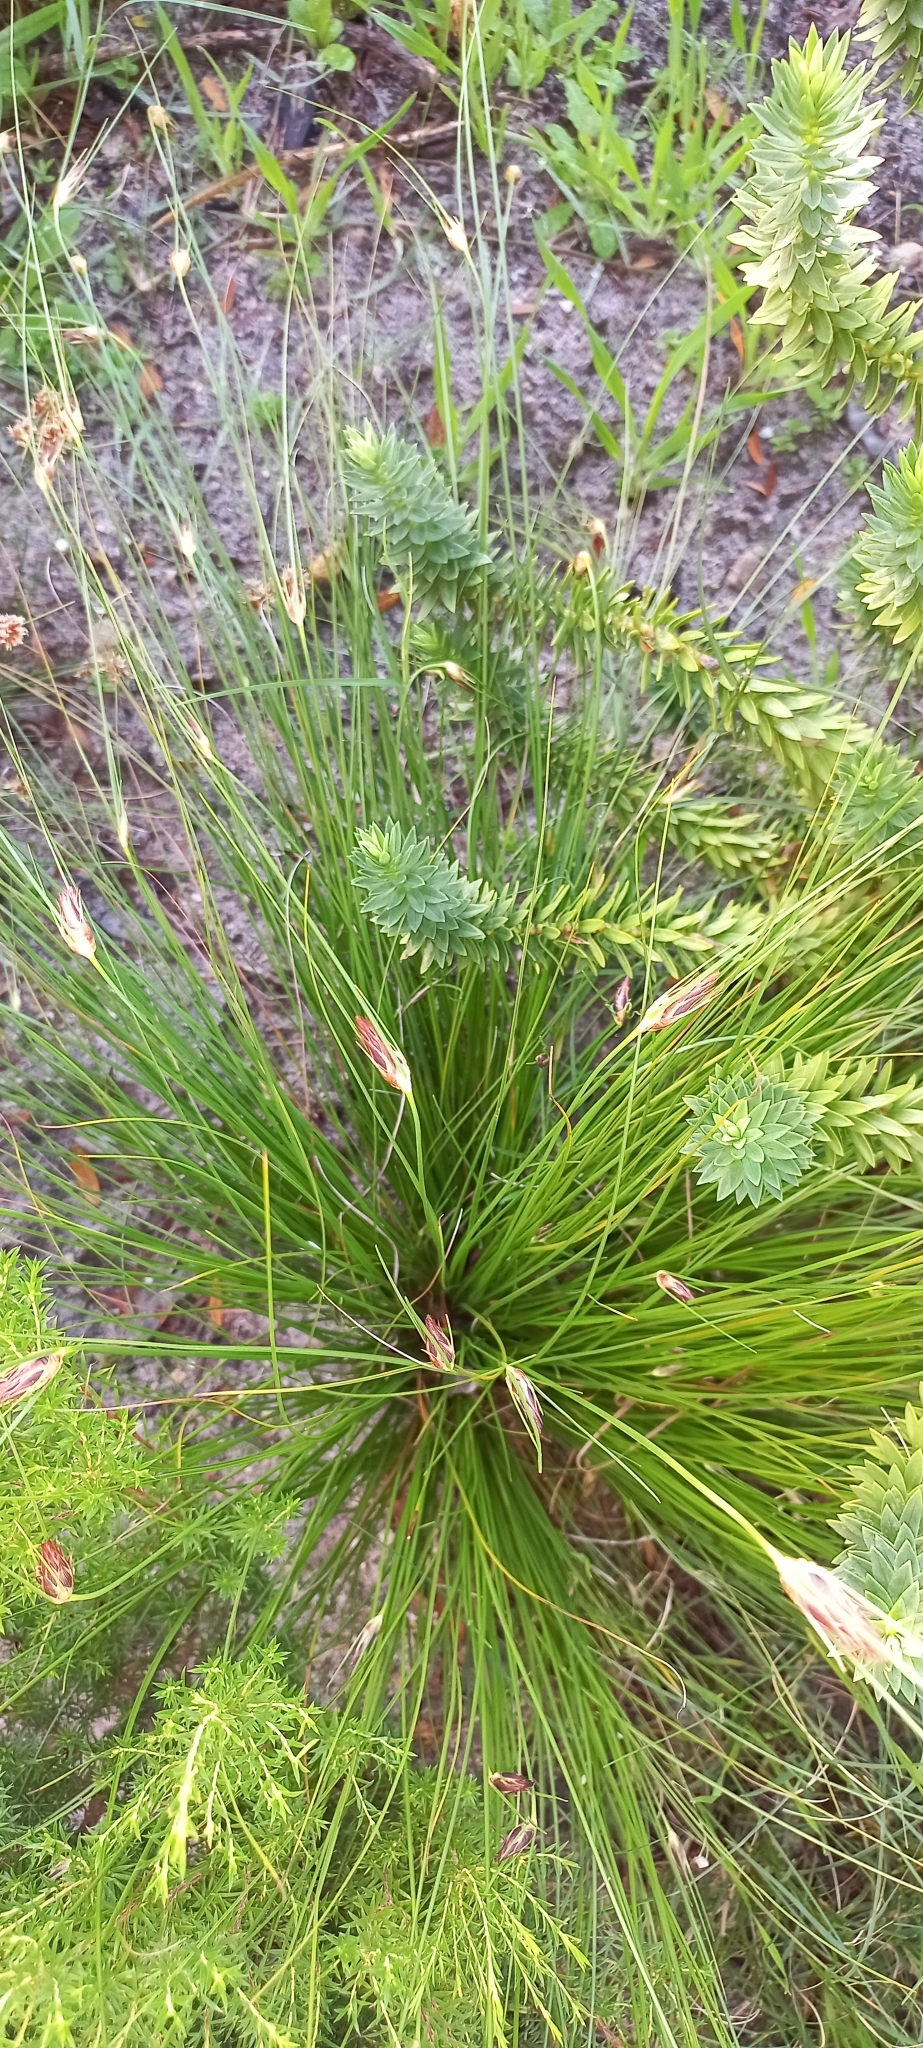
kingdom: Plantae
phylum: Tracheophyta
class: Liliopsida
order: Poales
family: Cyperaceae
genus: Ficinia
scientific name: Ficinia nigrescens
